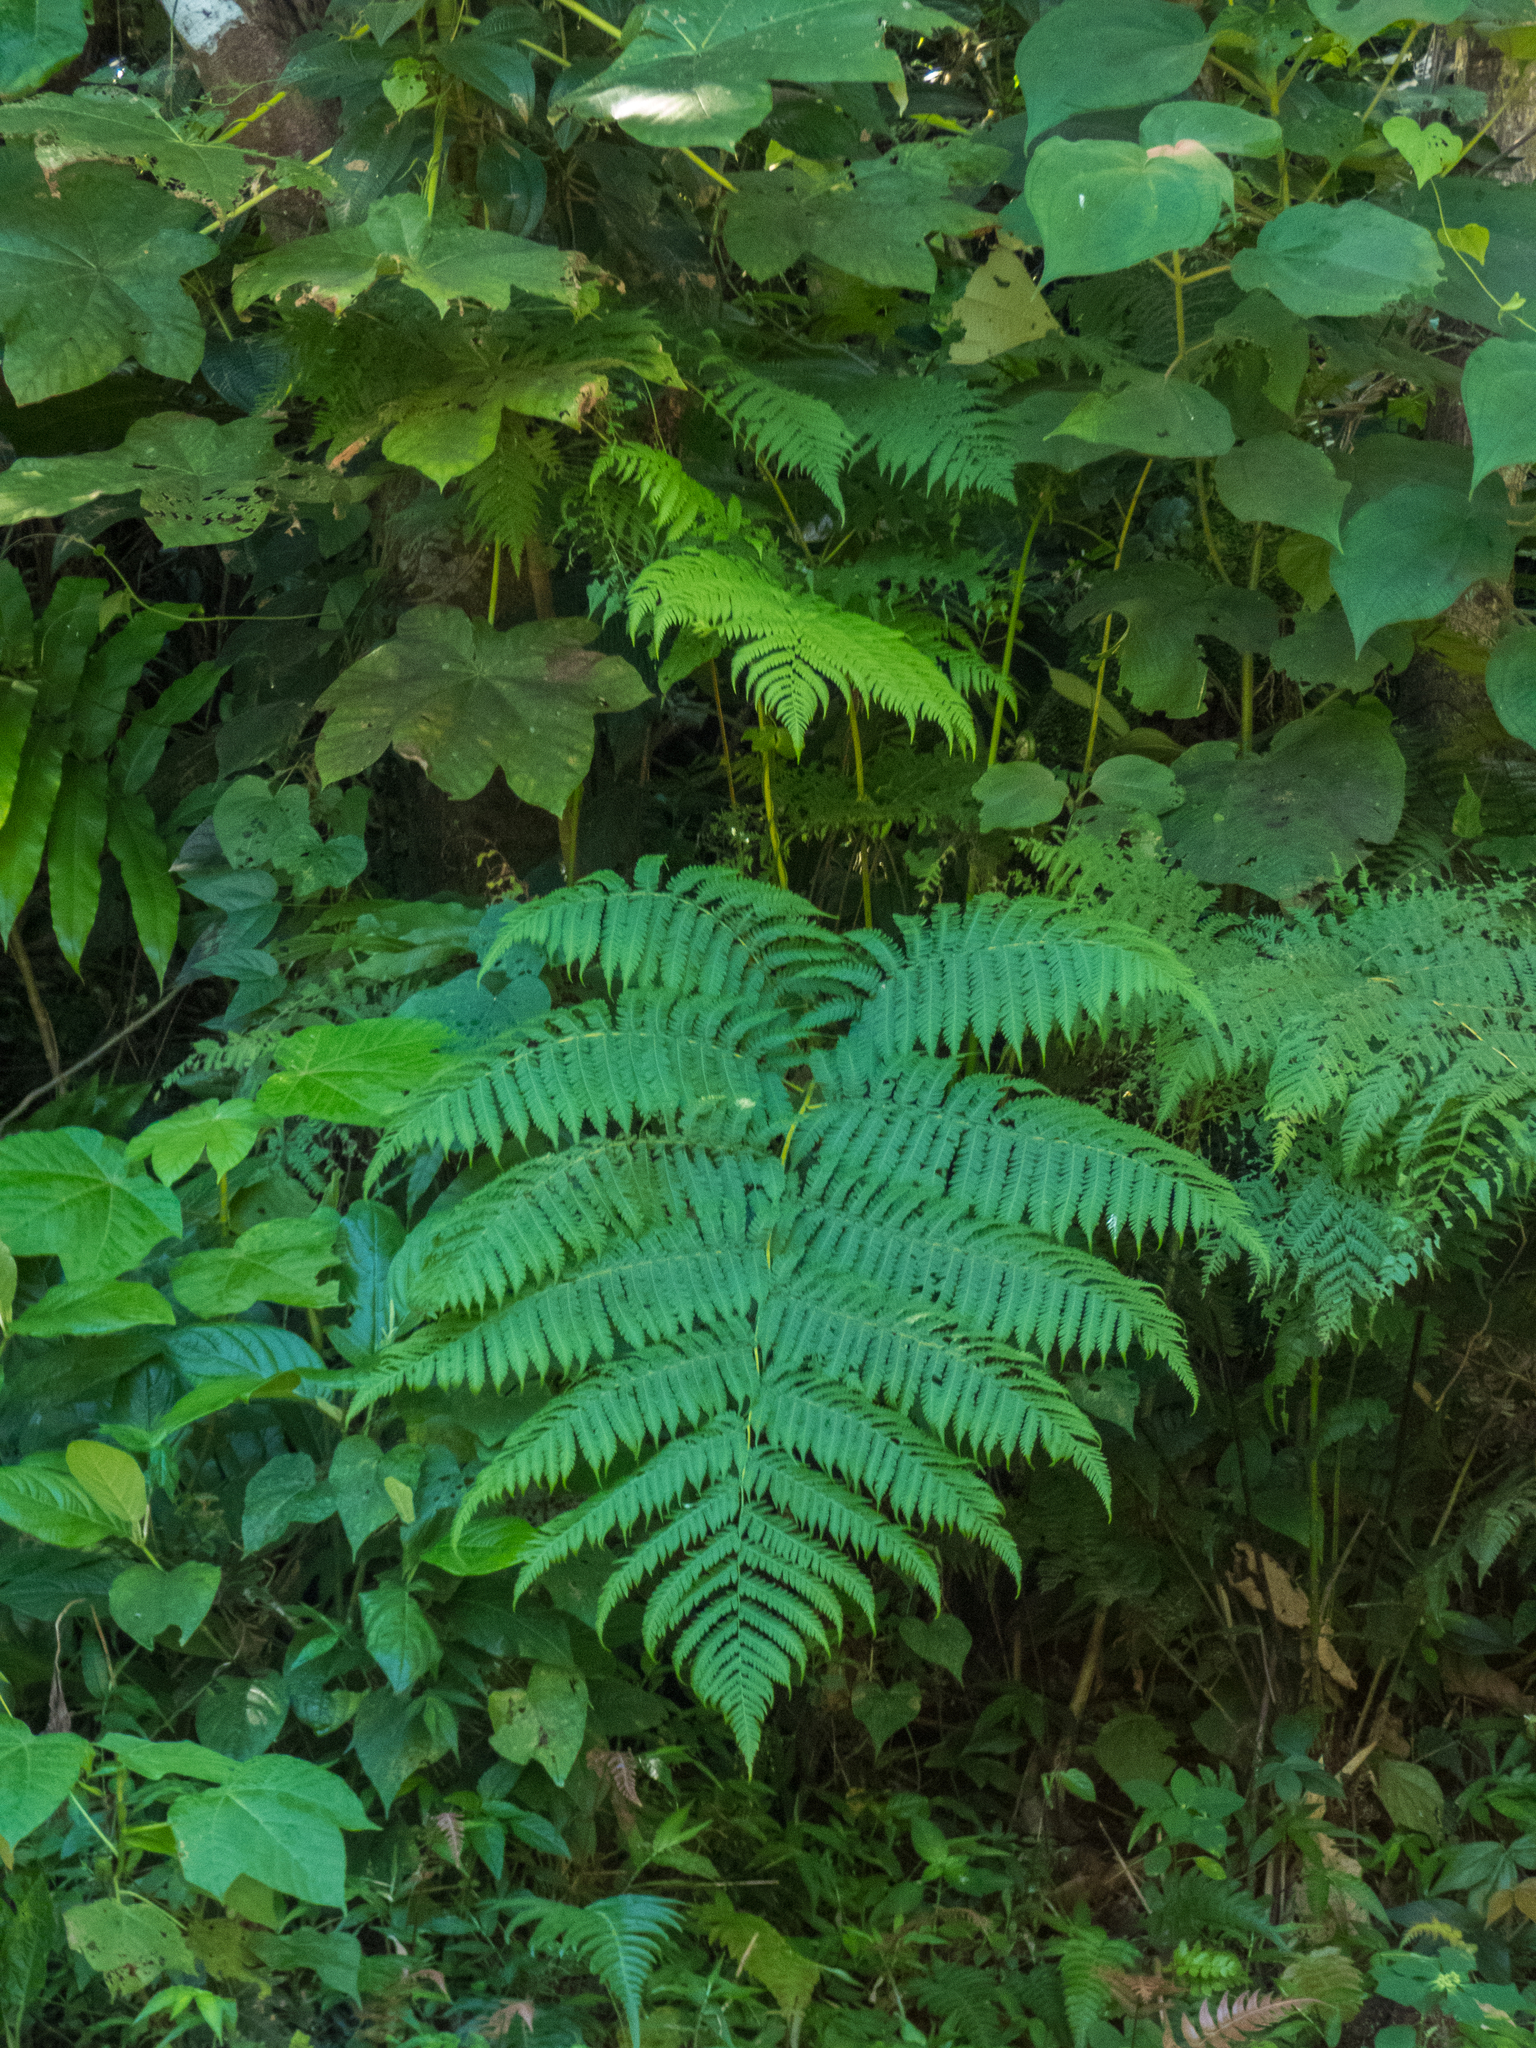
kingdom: Plantae
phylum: Tracheophyta
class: Polypodiopsida
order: Cyatheales
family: Cyatheaceae
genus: Cyathea
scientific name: Cyathea arborea
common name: West indian treefern
